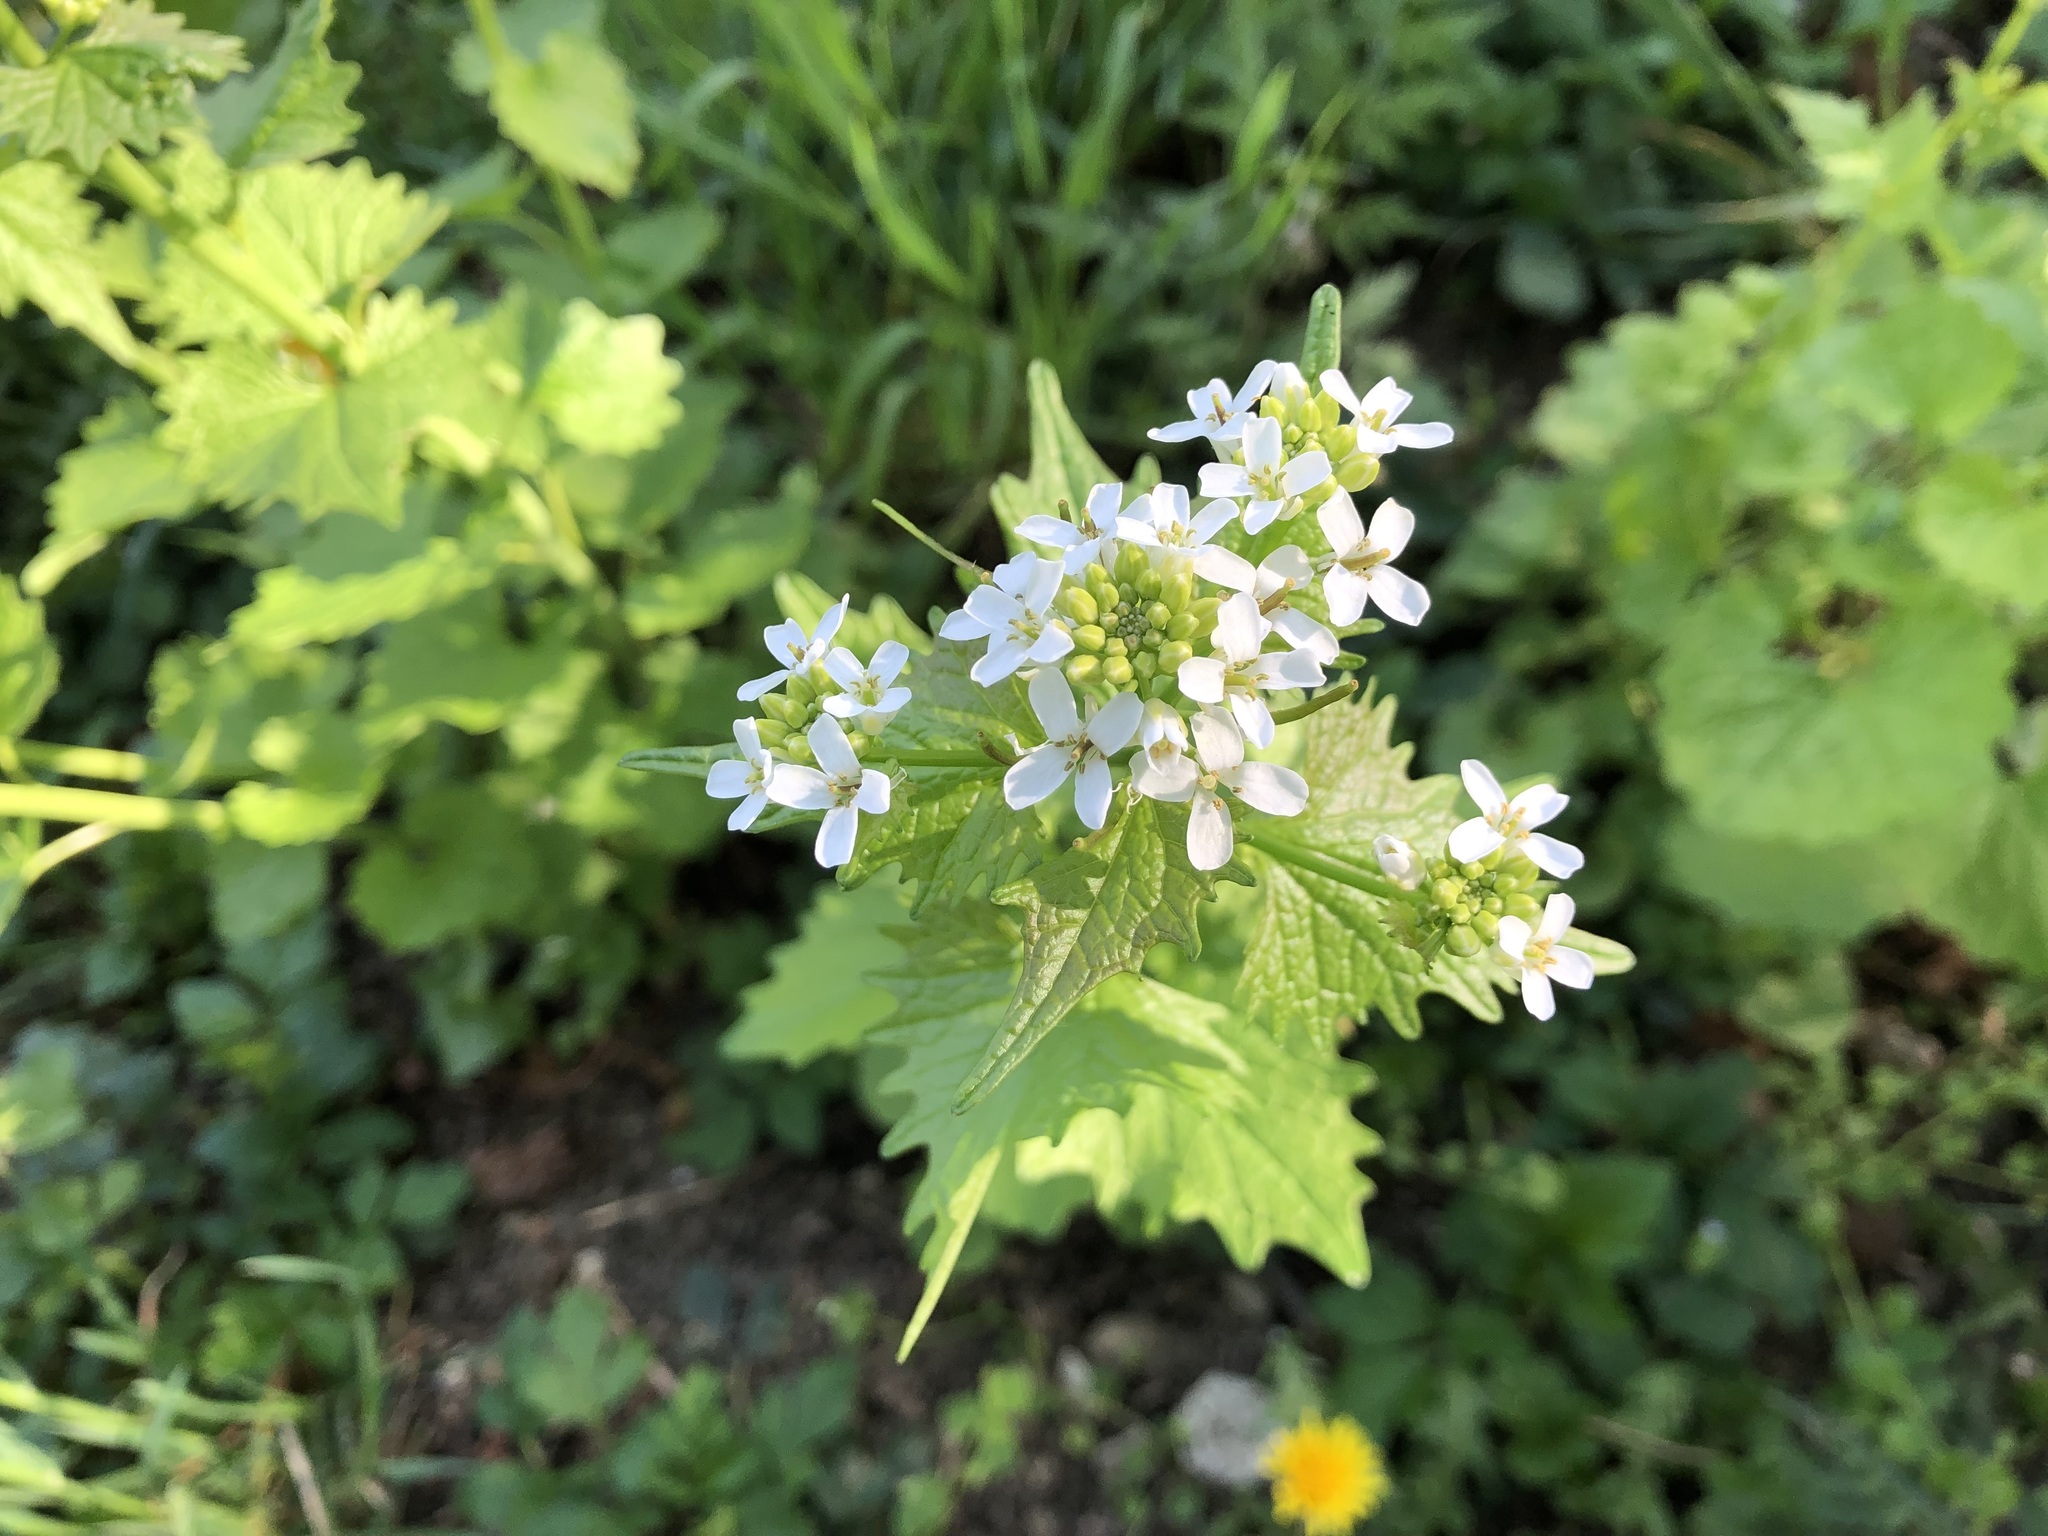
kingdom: Plantae
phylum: Tracheophyta
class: Magnoliopsida
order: Brassicales
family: Brassicaceae
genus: Alliaria
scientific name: Alliaria petiolata
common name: Garlic mustard
